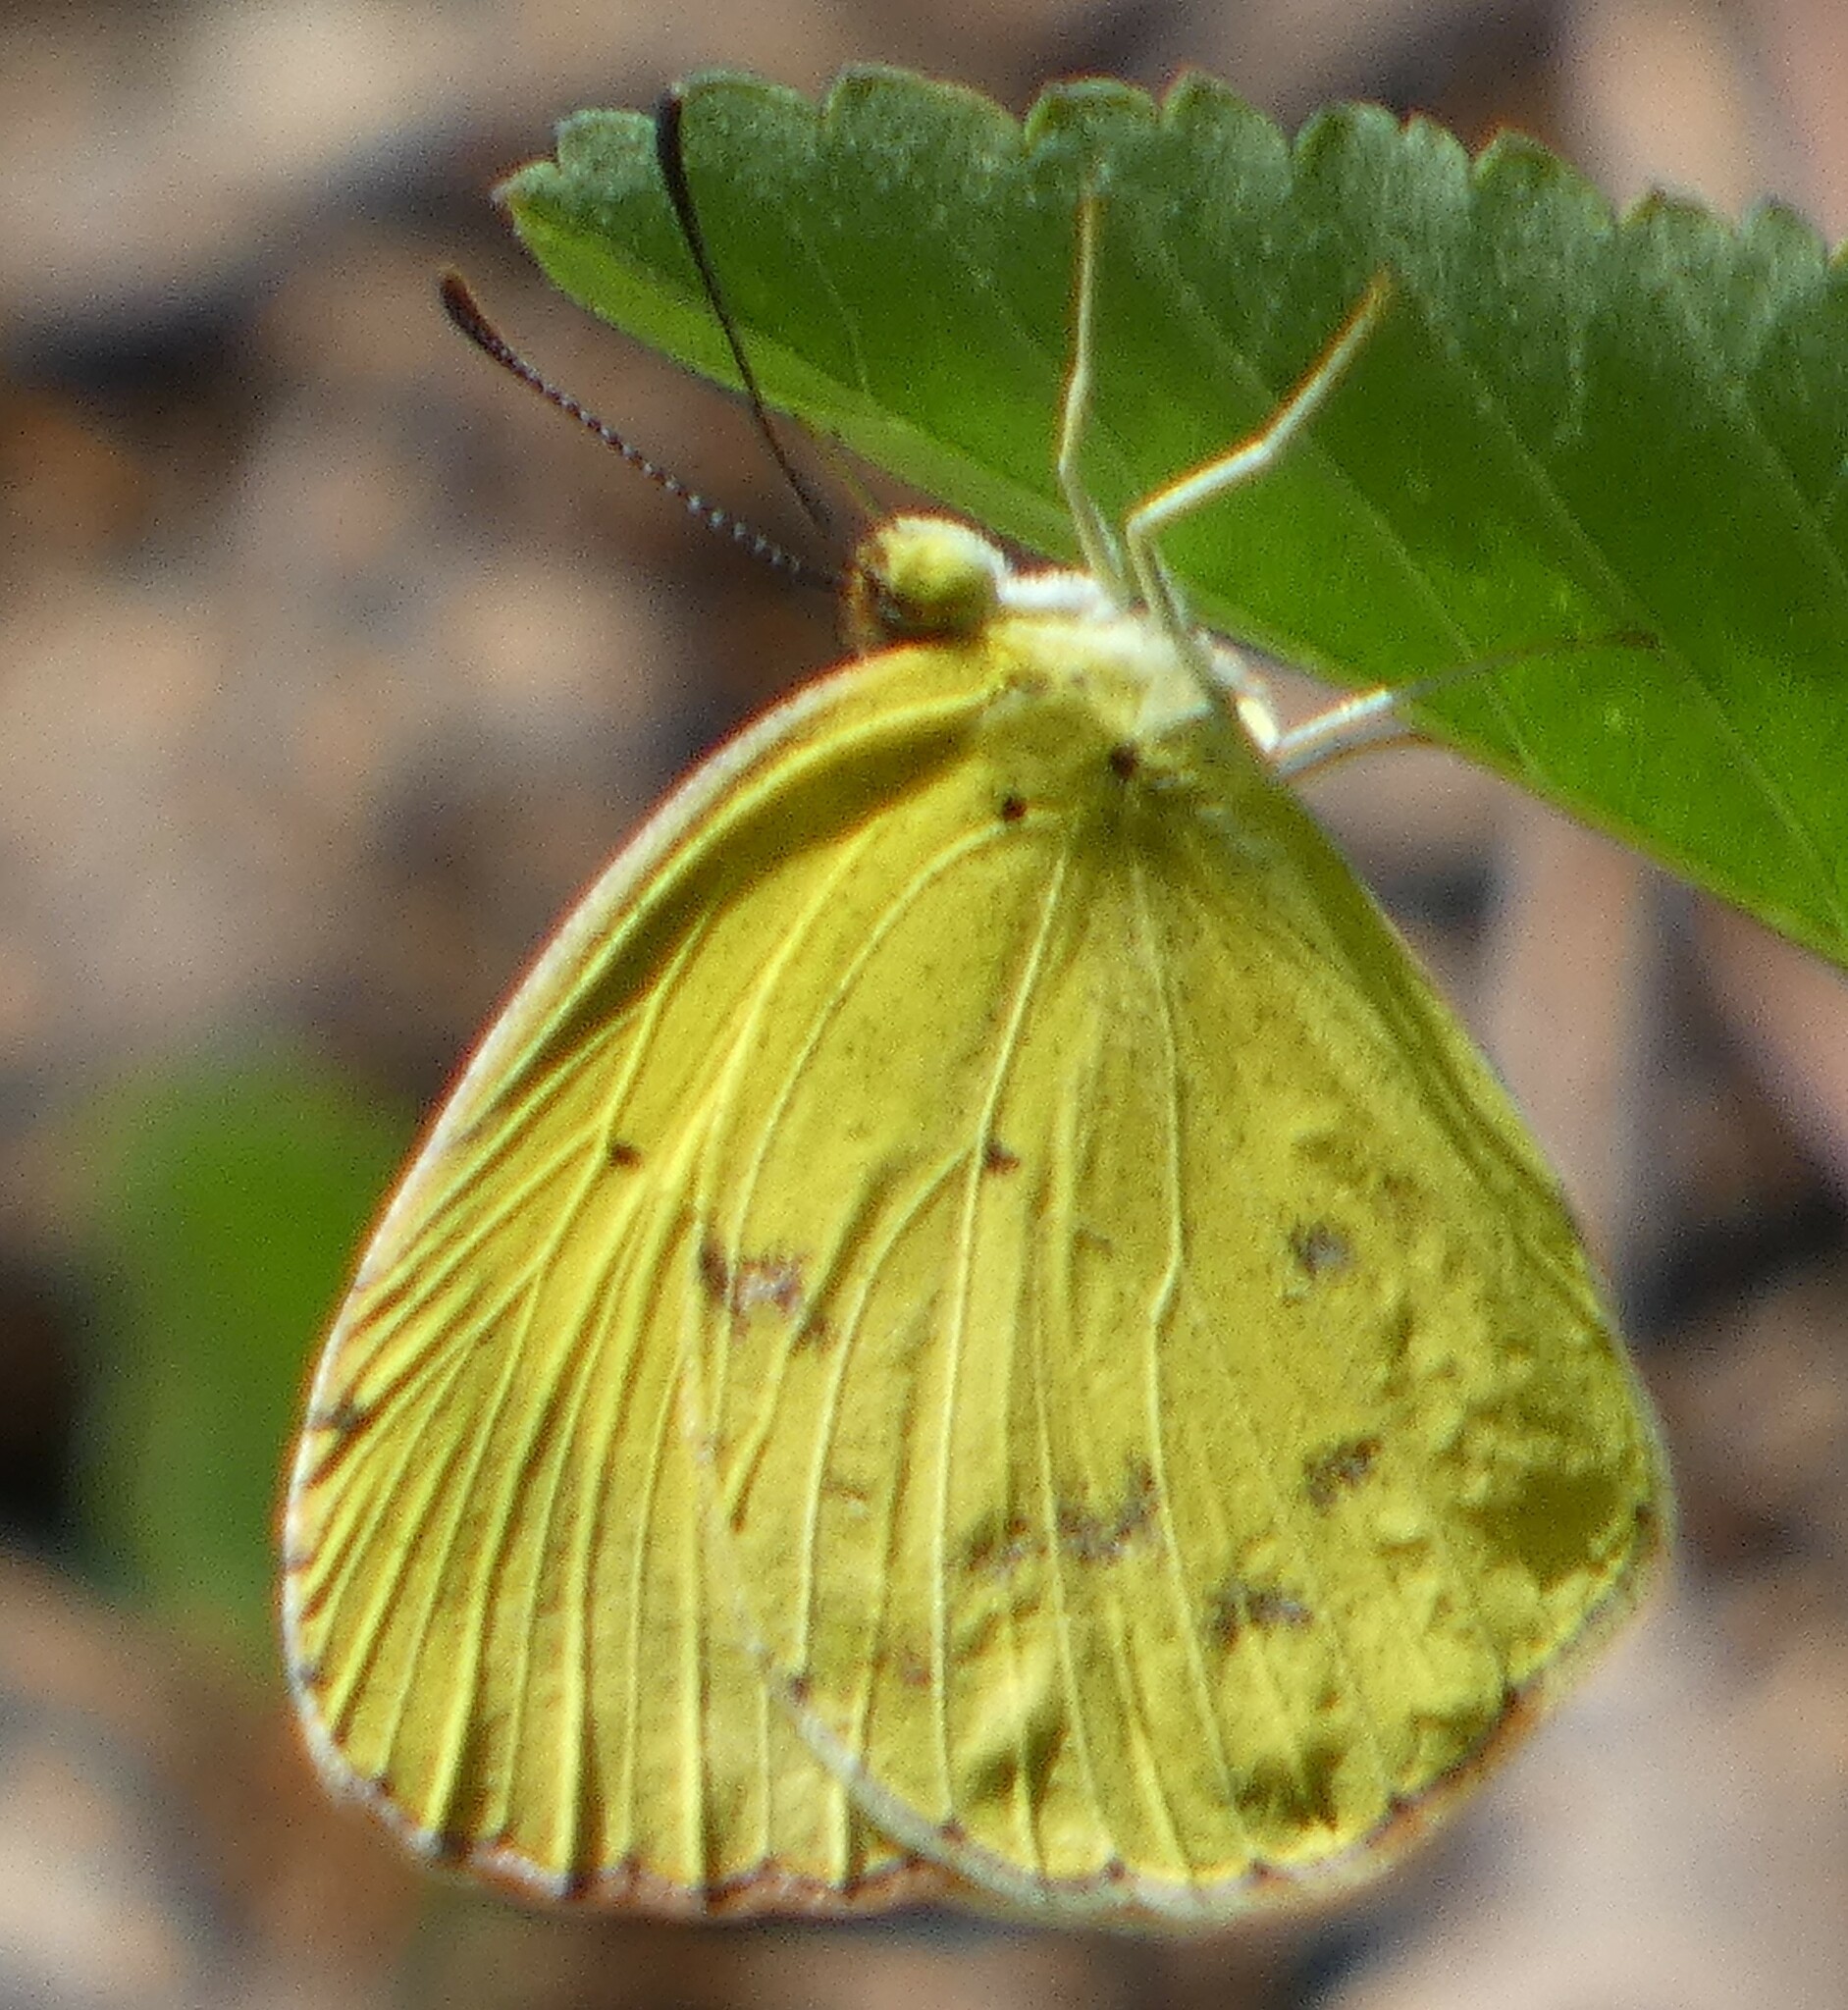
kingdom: Animalia
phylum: Arthropoda
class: Insecta
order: Lepidoptera
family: Pieridae
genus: Pyrisitia
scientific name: Pyrisitia lisa
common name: Little yellow
